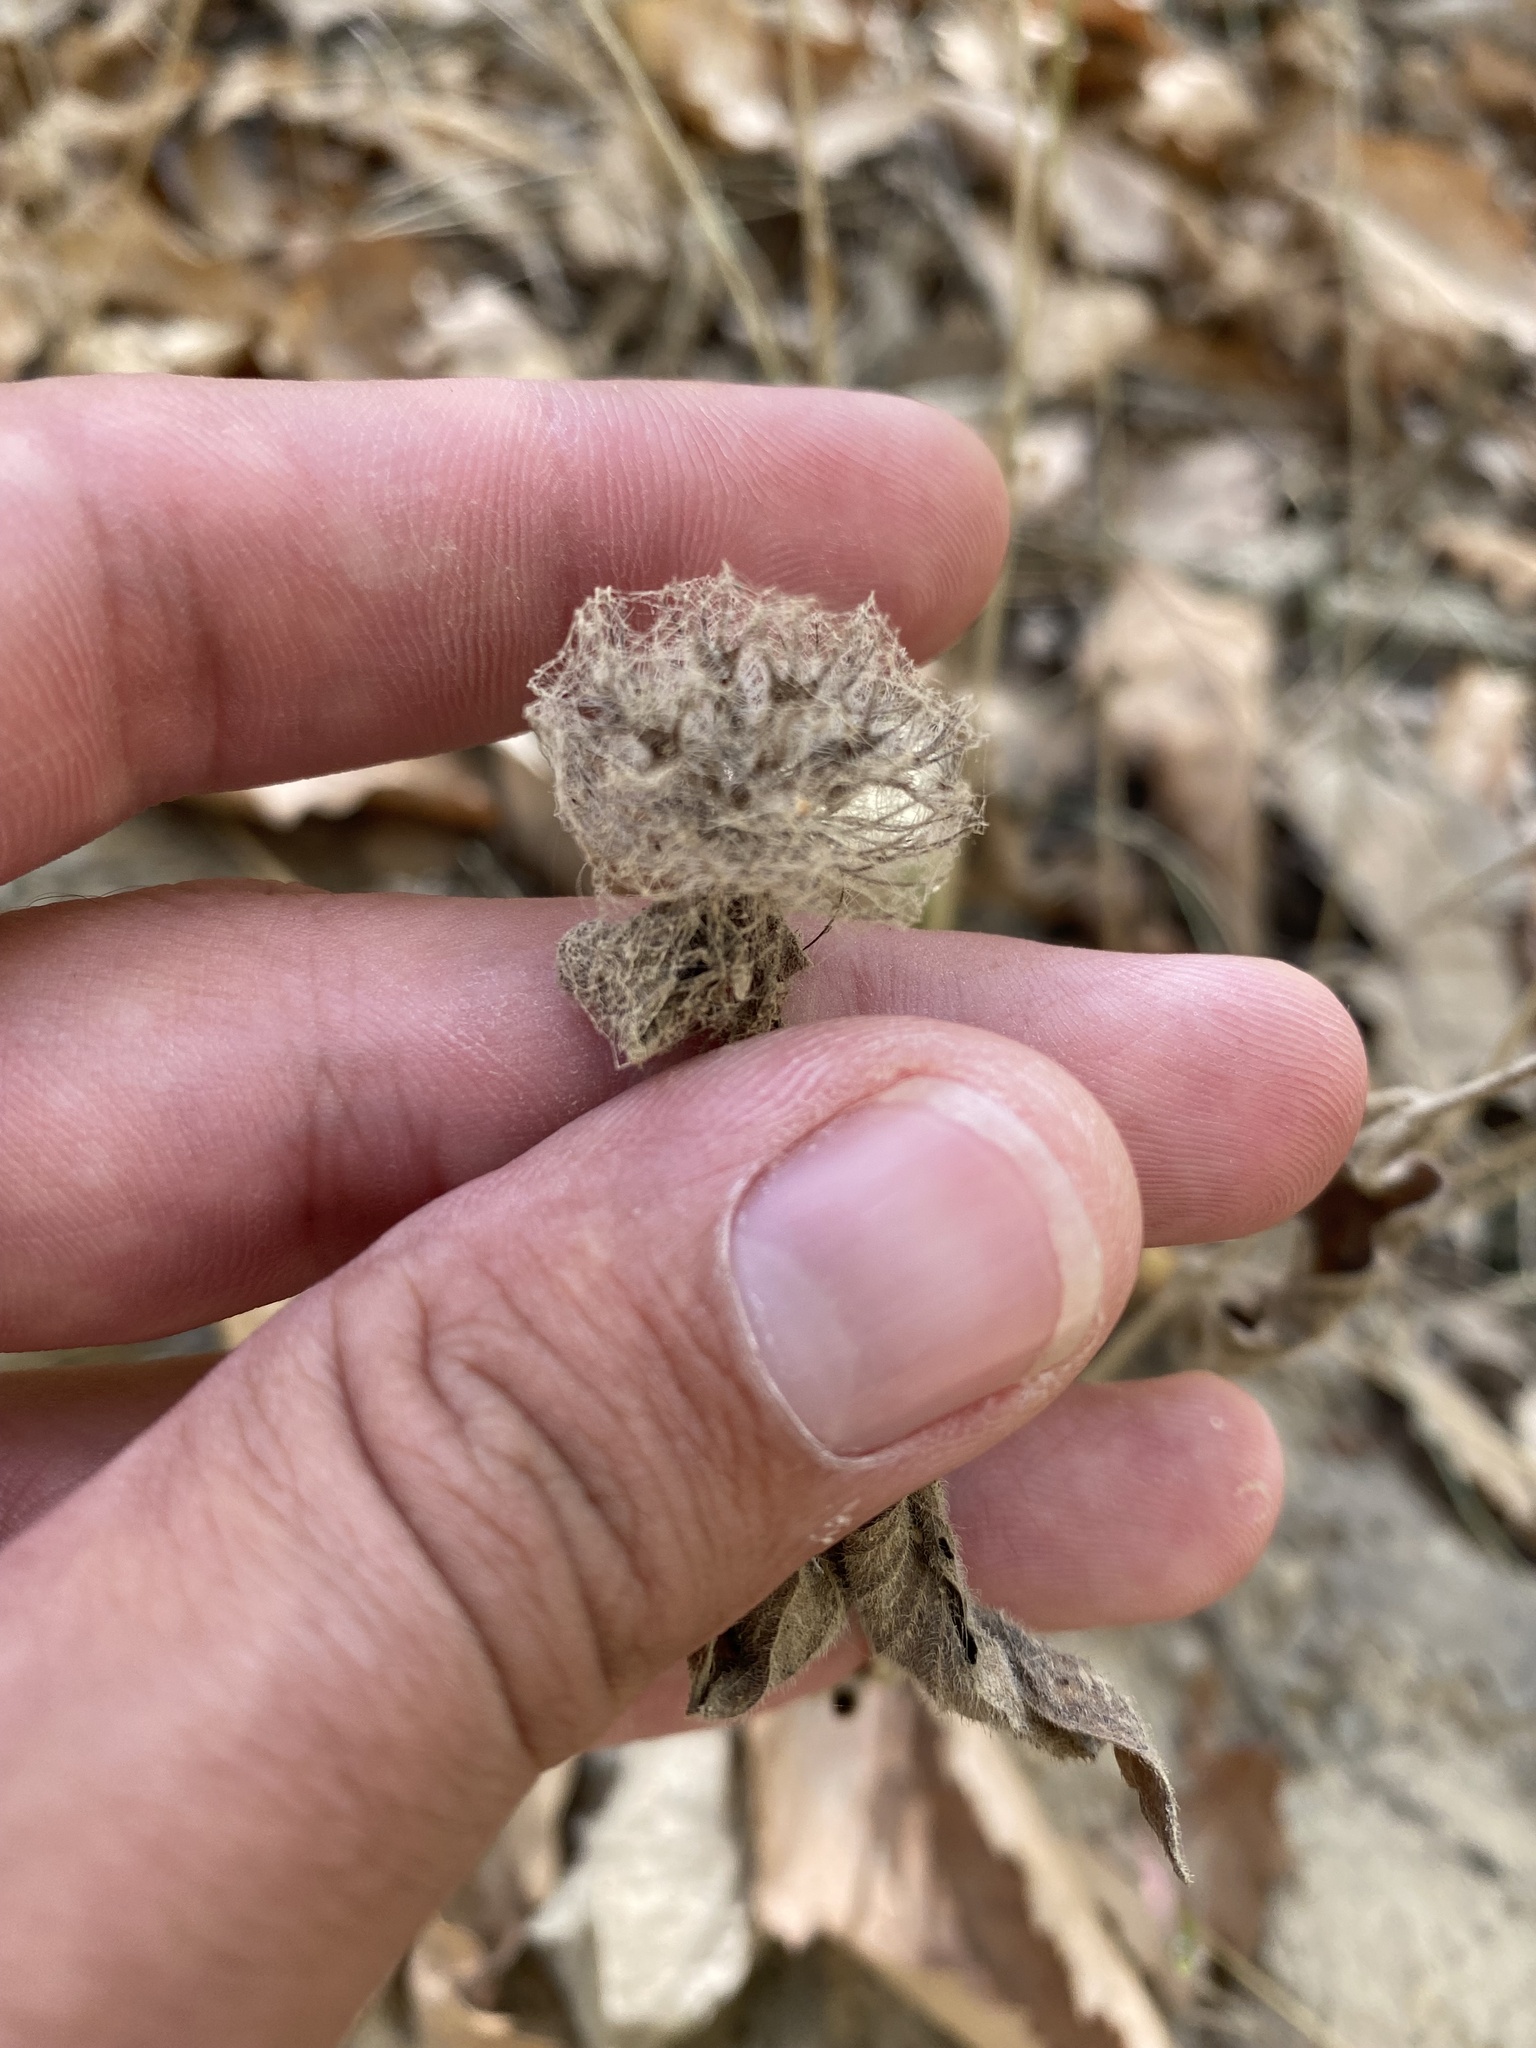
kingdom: Plantae
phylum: Tracheophyta
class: Magnoliopsida
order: Lamiales
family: Lamiaceae
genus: Clinopodium
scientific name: Clinopodium caucasicum
